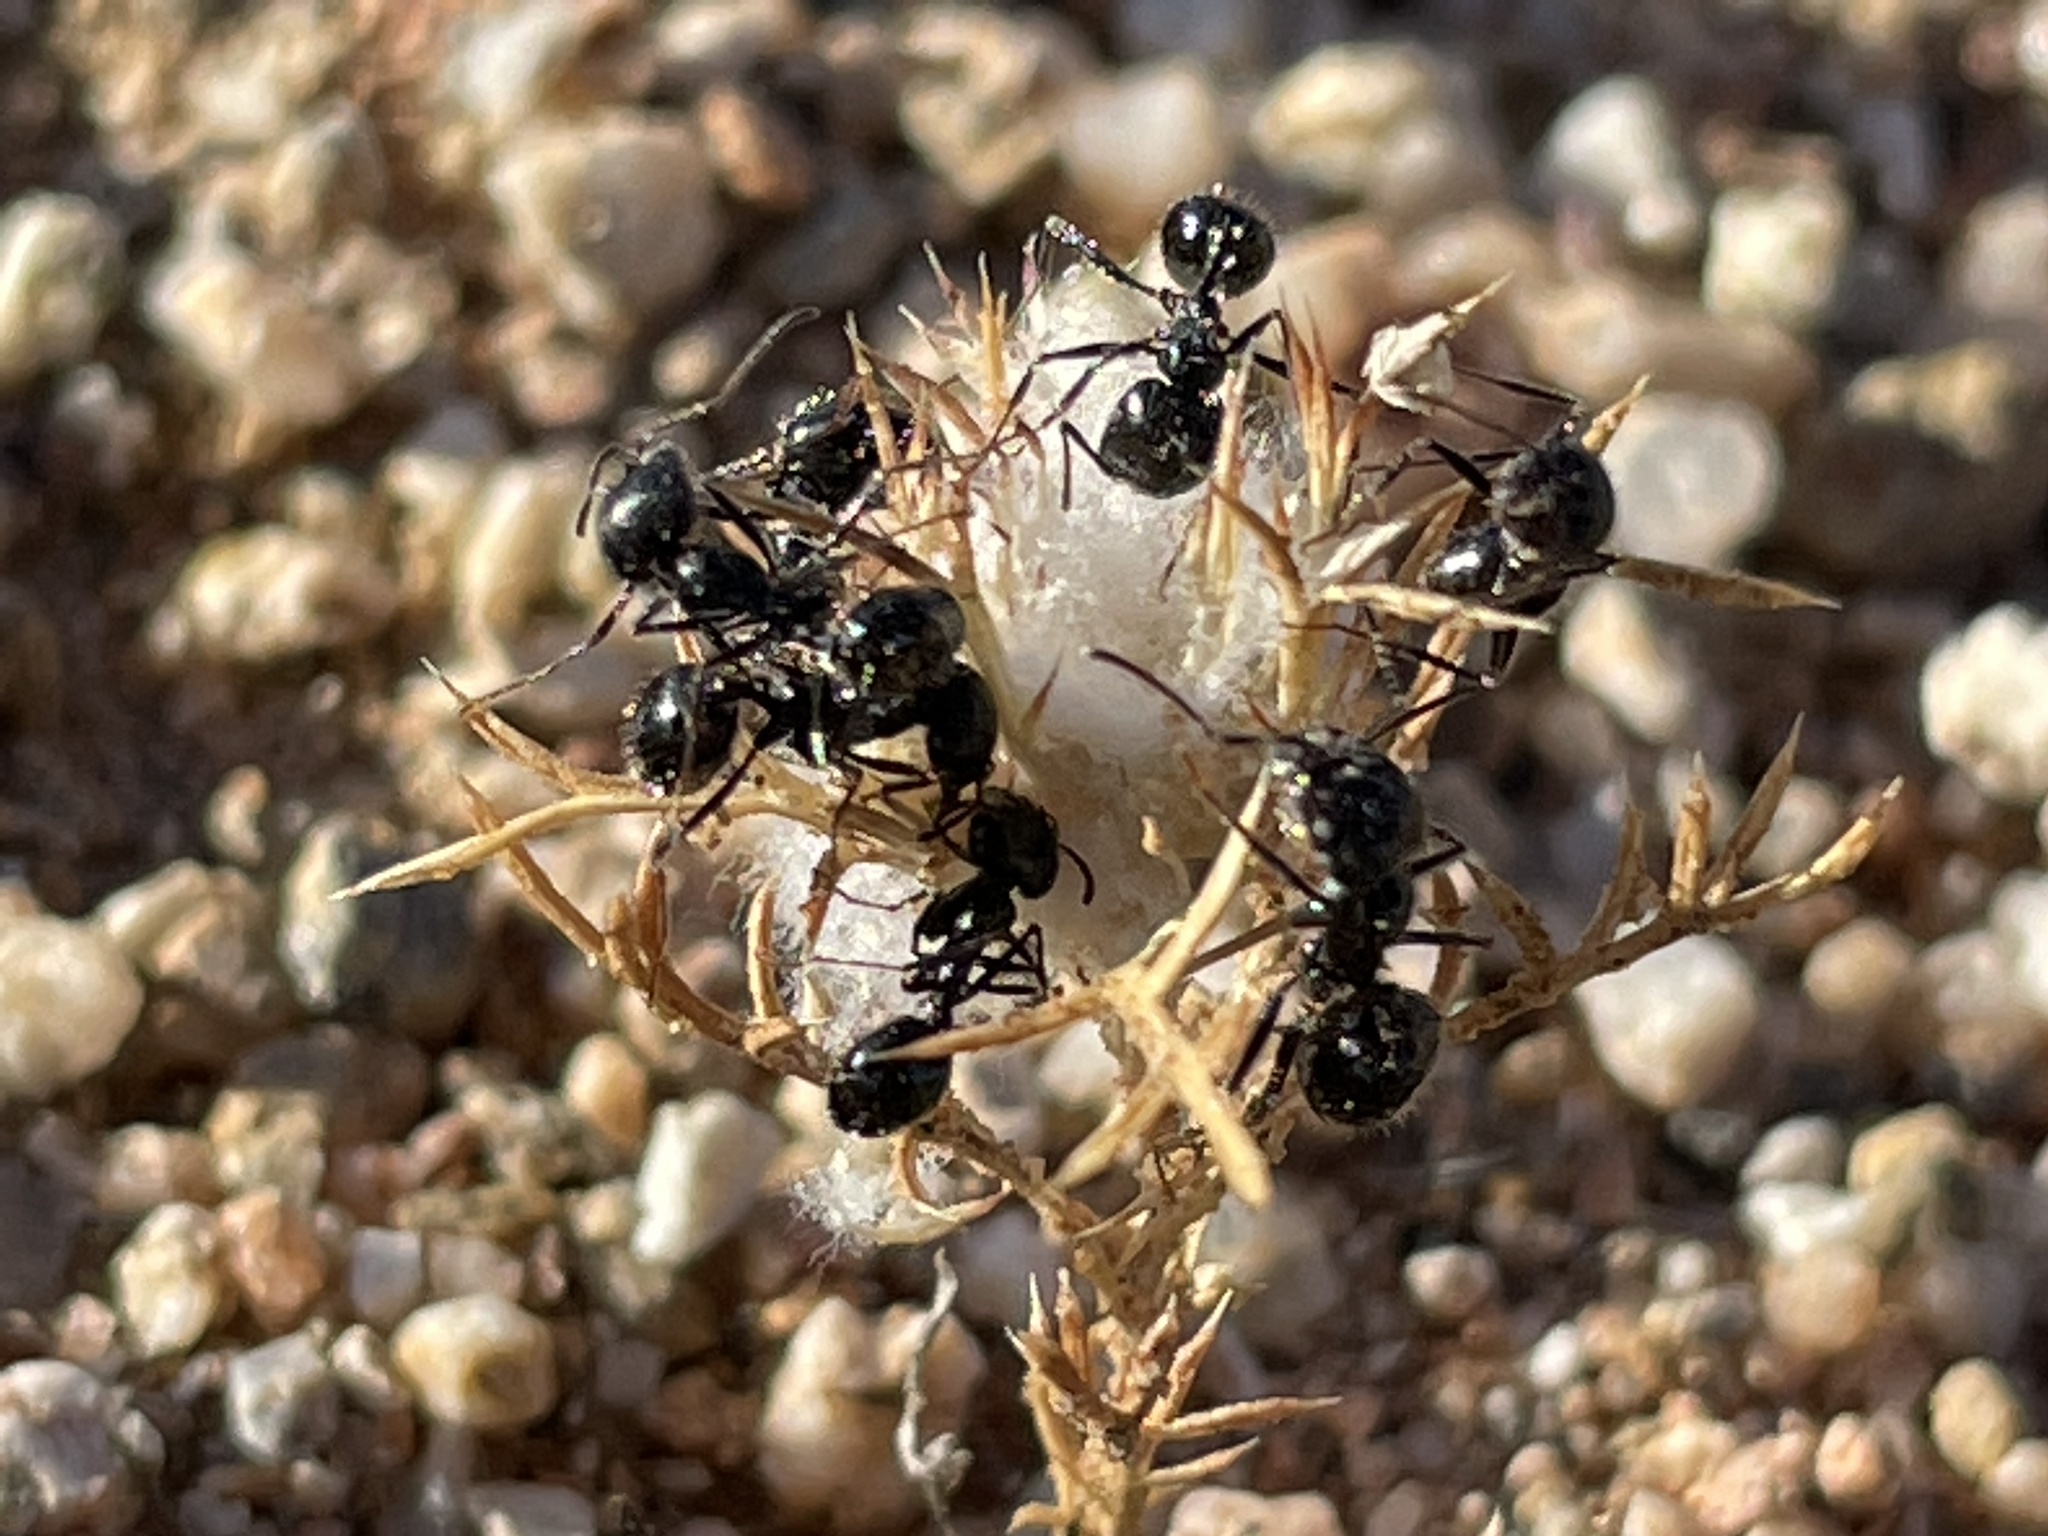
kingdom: Animalia
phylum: Arthropoda
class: Insecta
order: Hymenoptera
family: Formicidae
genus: Messor
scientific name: Messor pergandei
